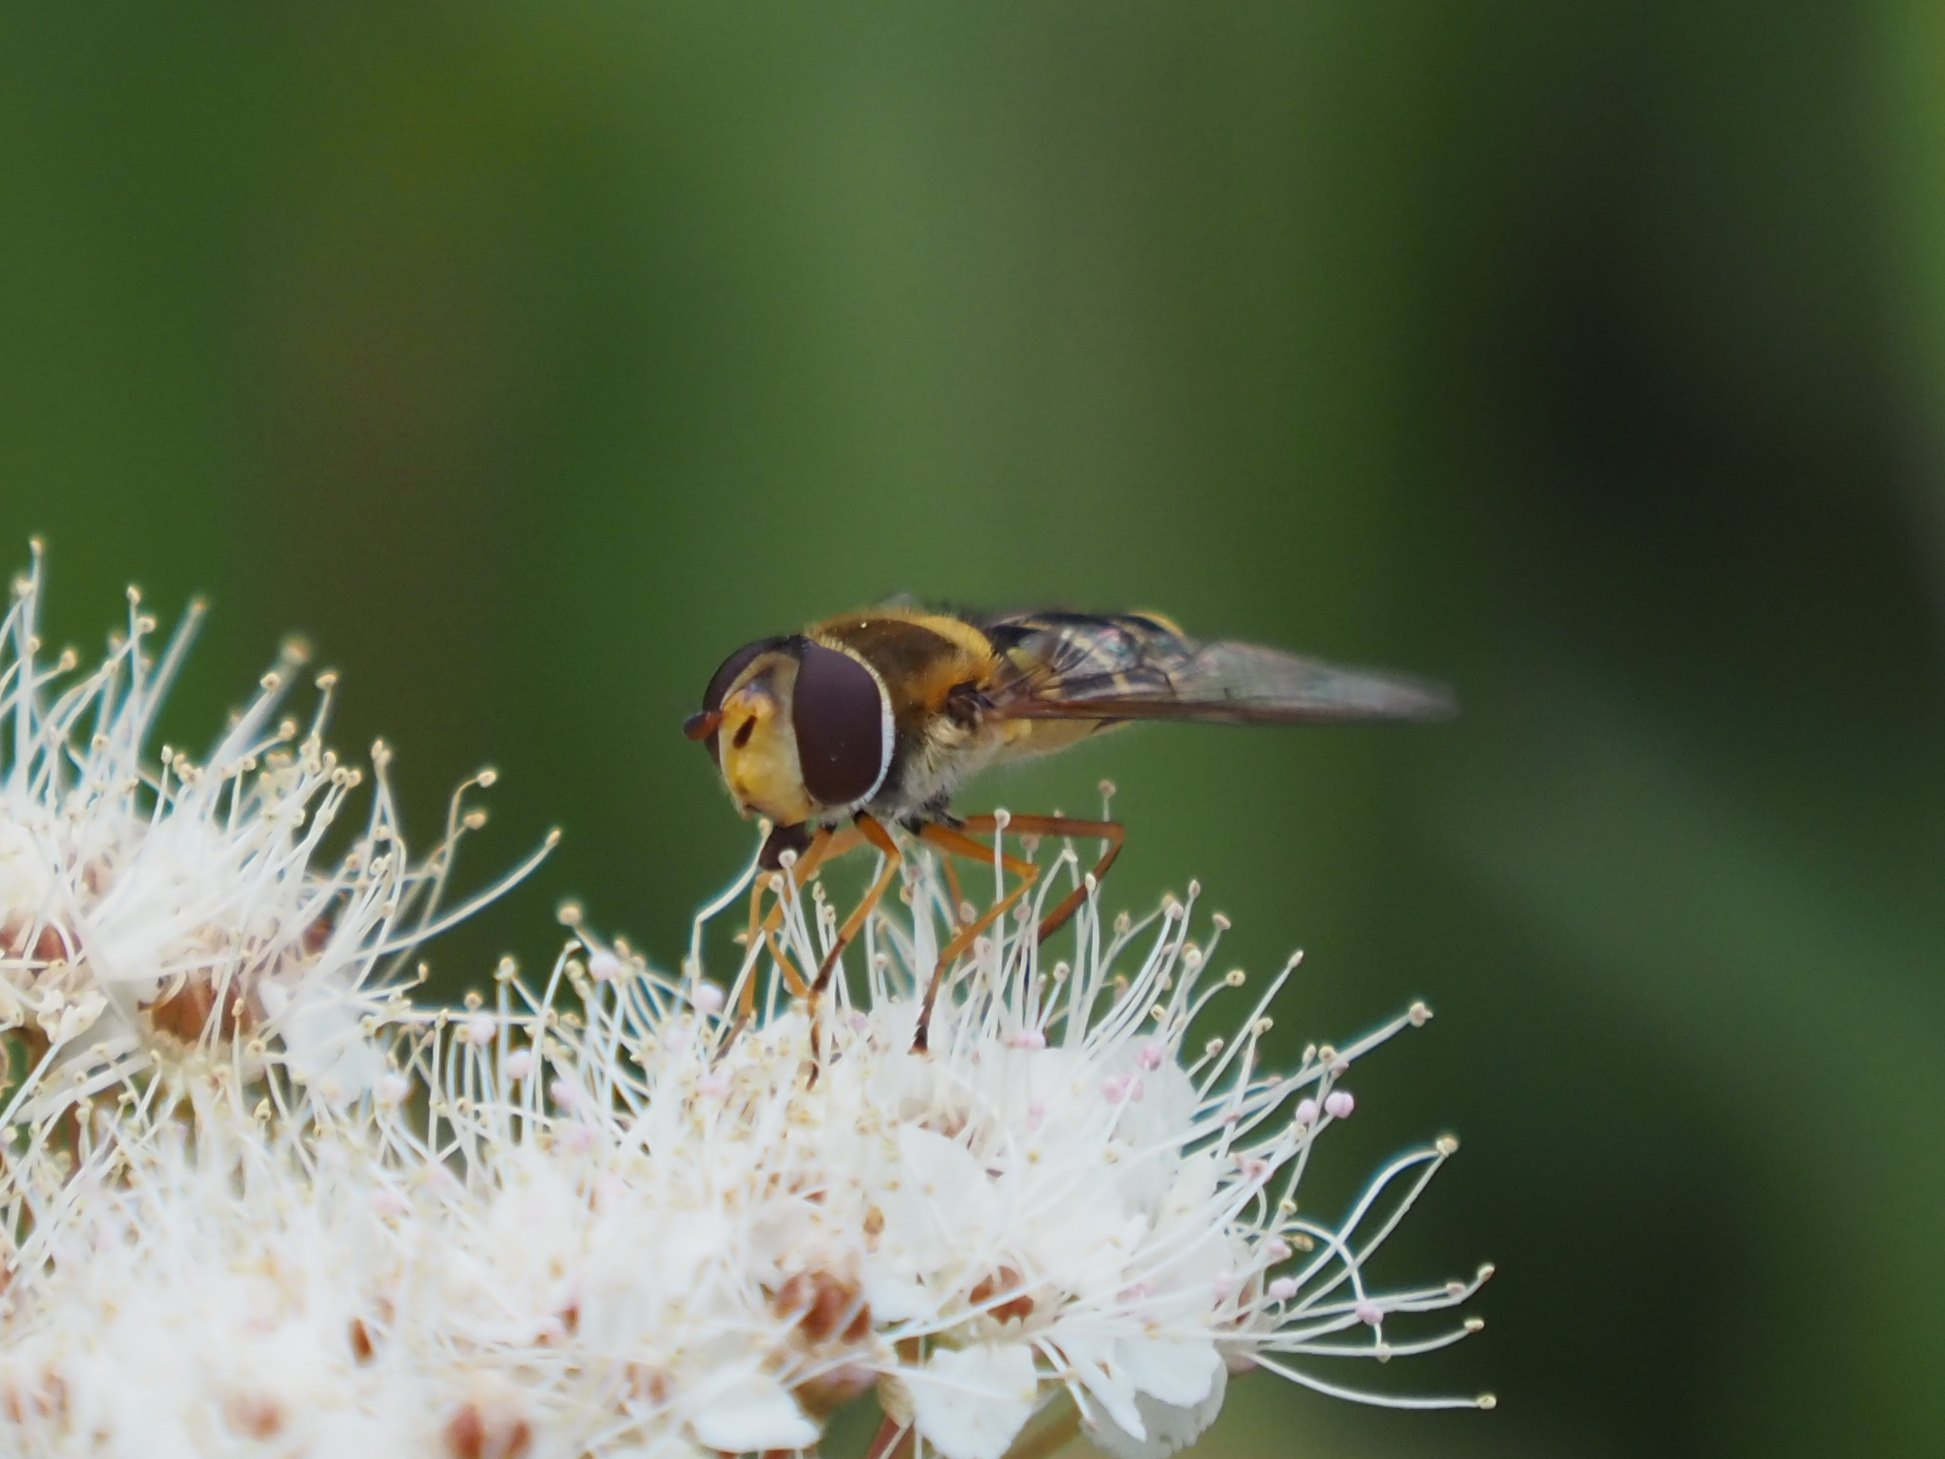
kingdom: Animalia
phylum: Arthropoda
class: Insecta
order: Diptera
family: Syrphidae
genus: Syrphus
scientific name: Syrphus ribesii
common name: Common flower fly
